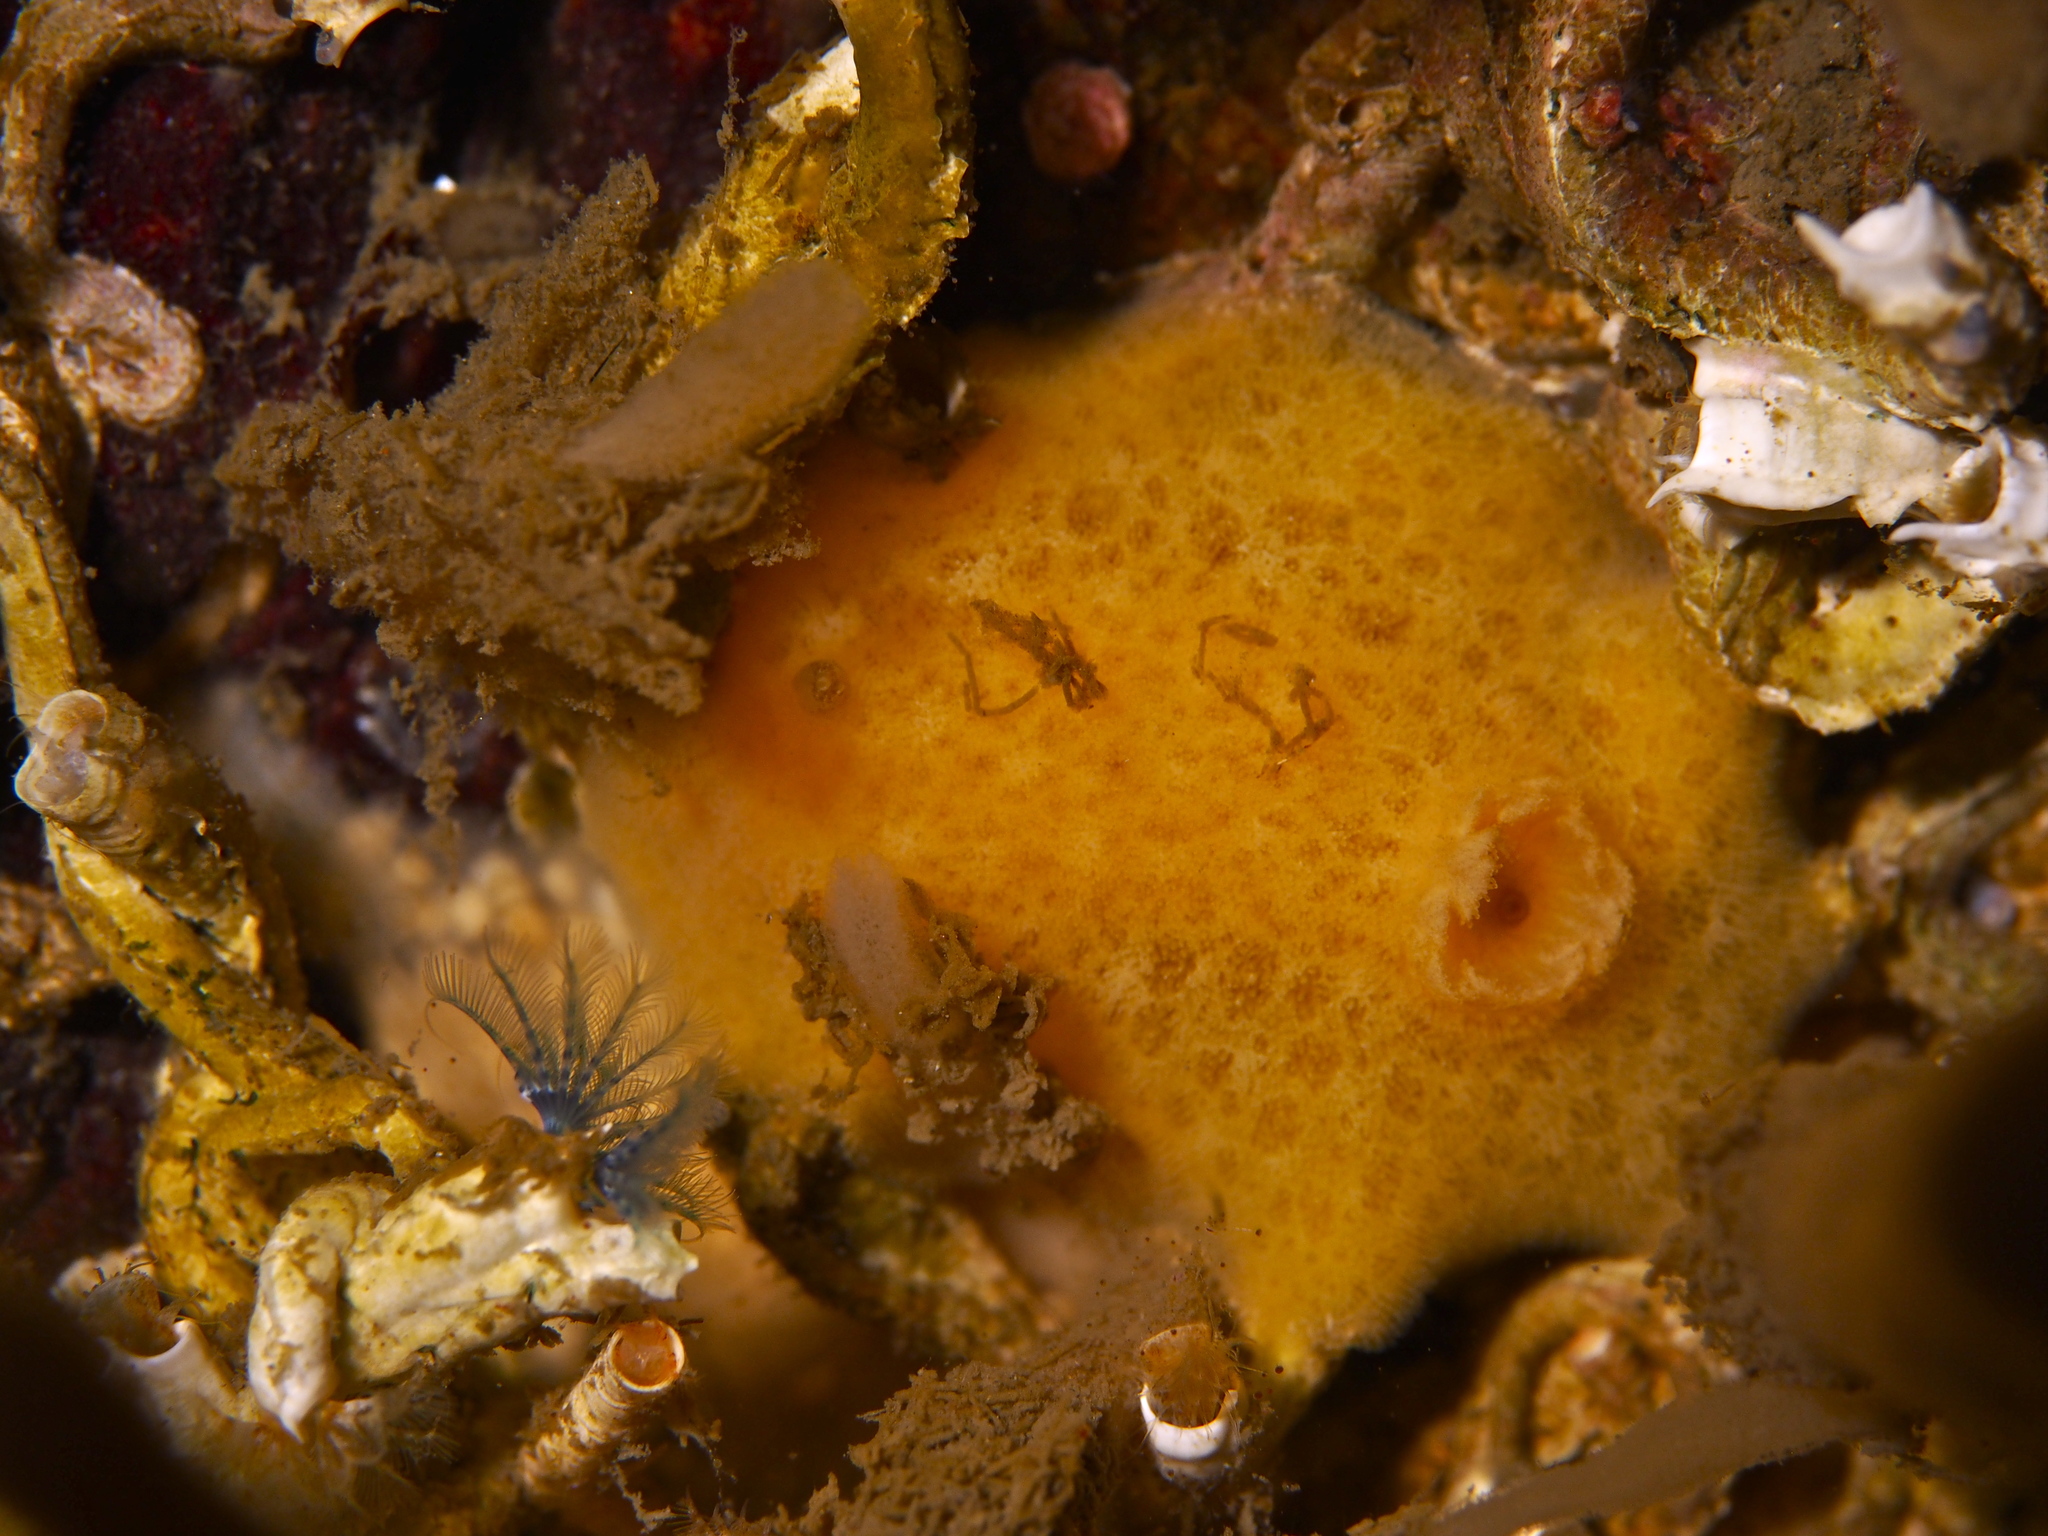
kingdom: Animalia
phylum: Mollusca
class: Gastropoda
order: Nudibranchia
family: Discodorididae
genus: Jorunna
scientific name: Jorunna tomentosa
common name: Grey sea slug
